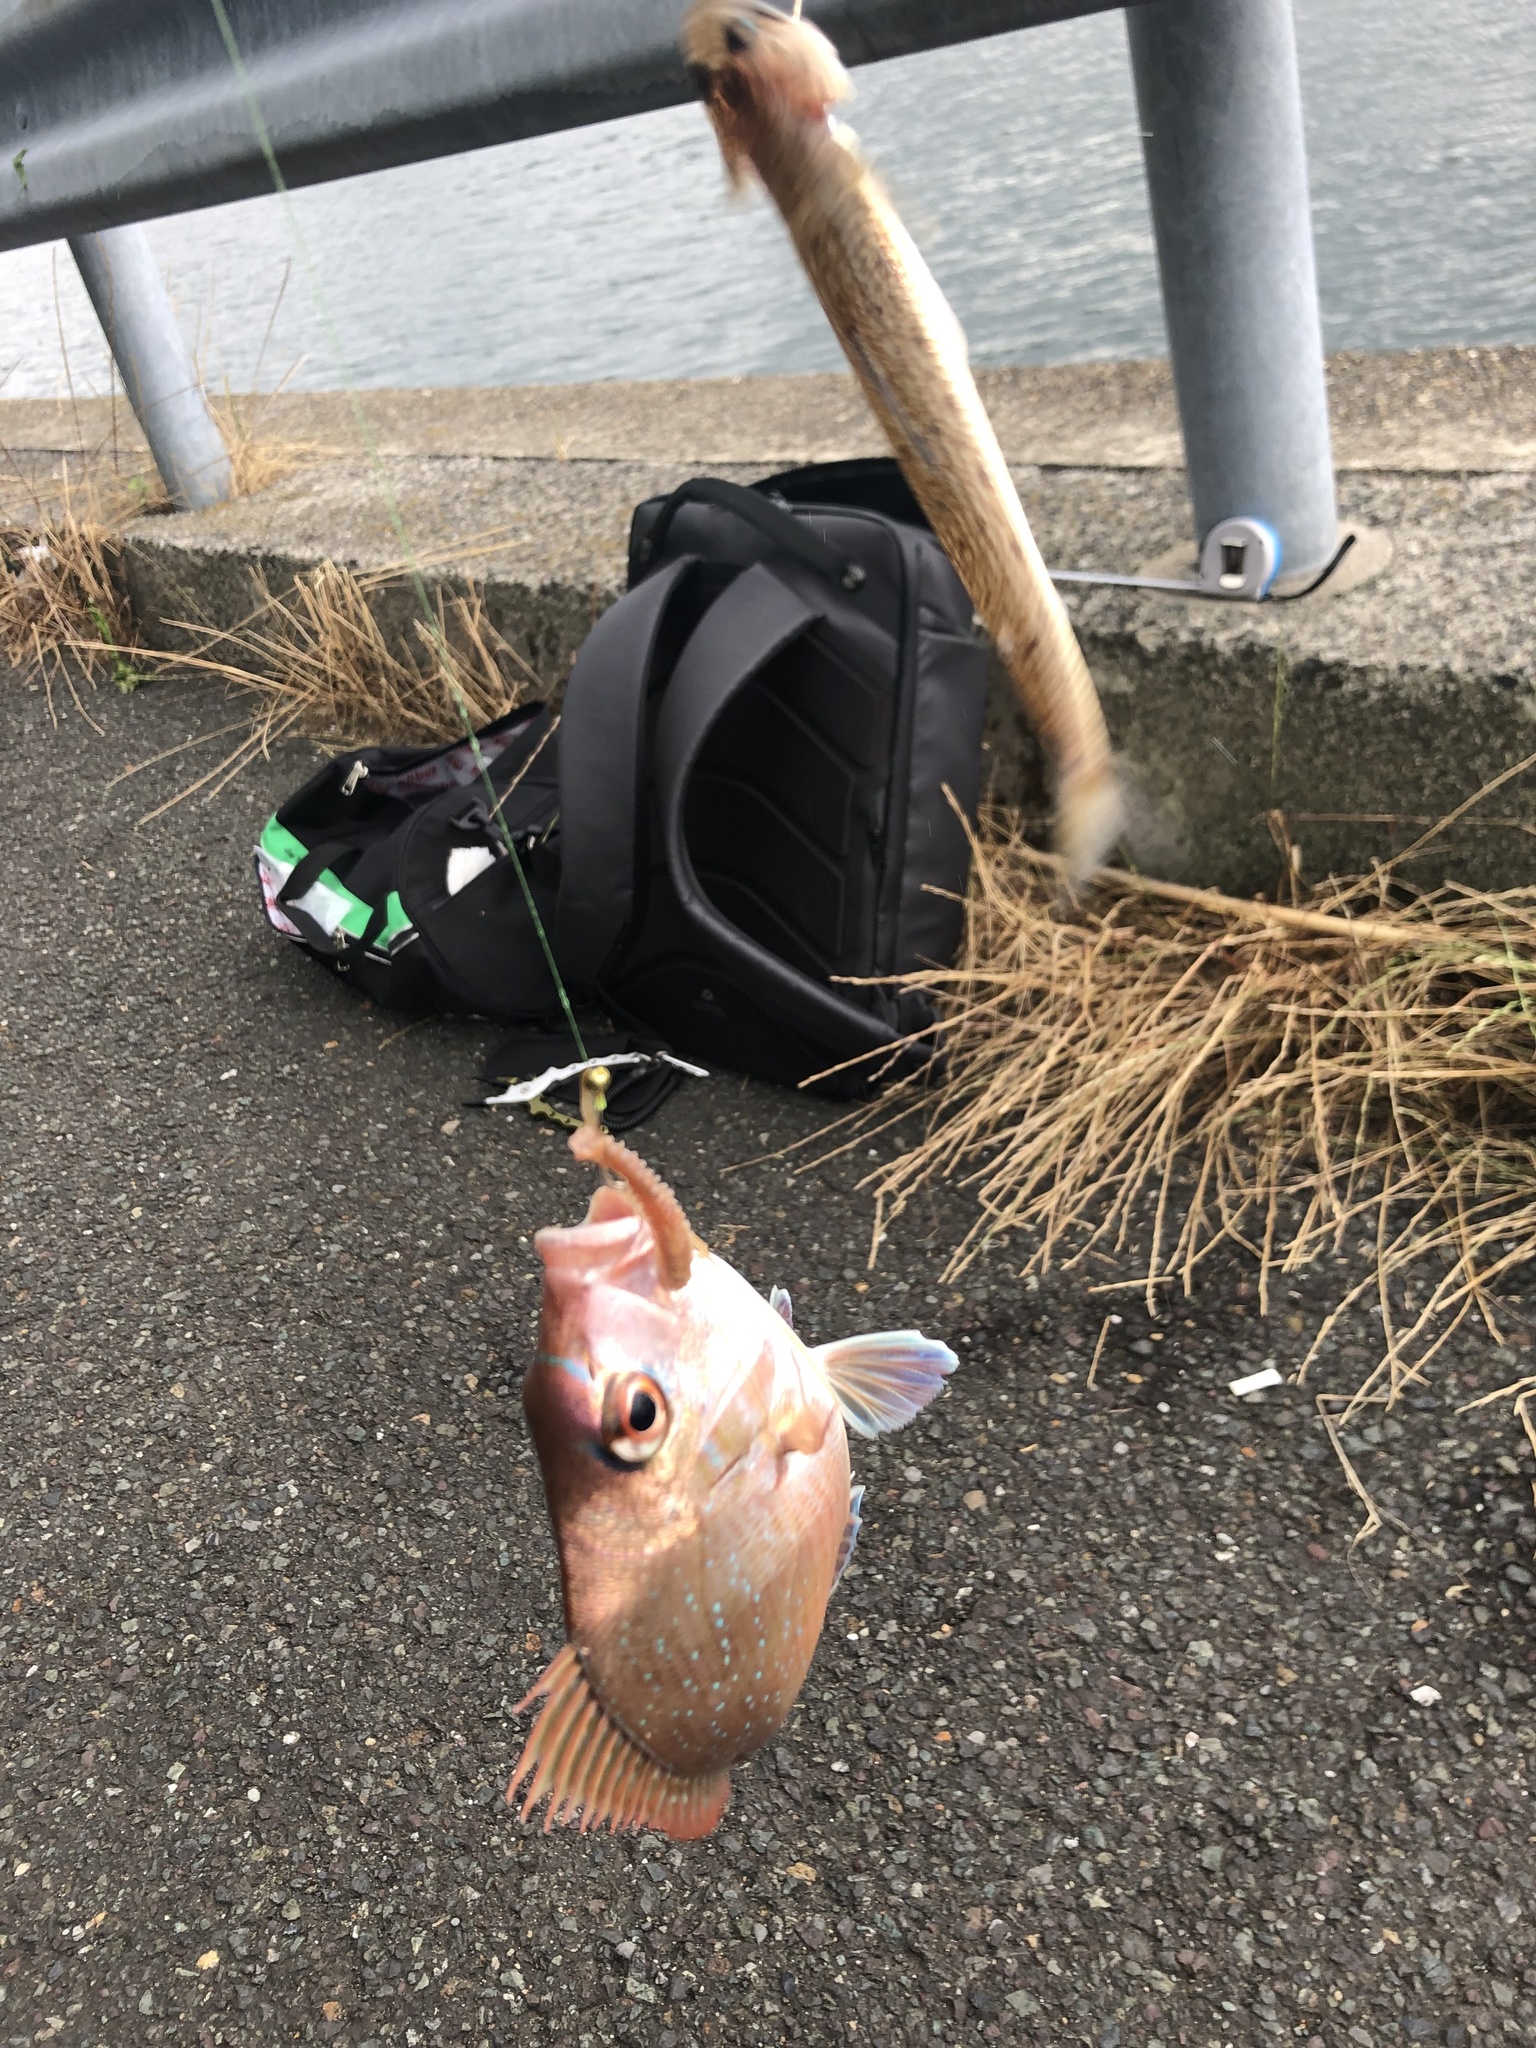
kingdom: Animalia
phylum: Chordata
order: Perciformes
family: Sparidae
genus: Pagrus
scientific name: Pagrus major
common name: Red sea bream
